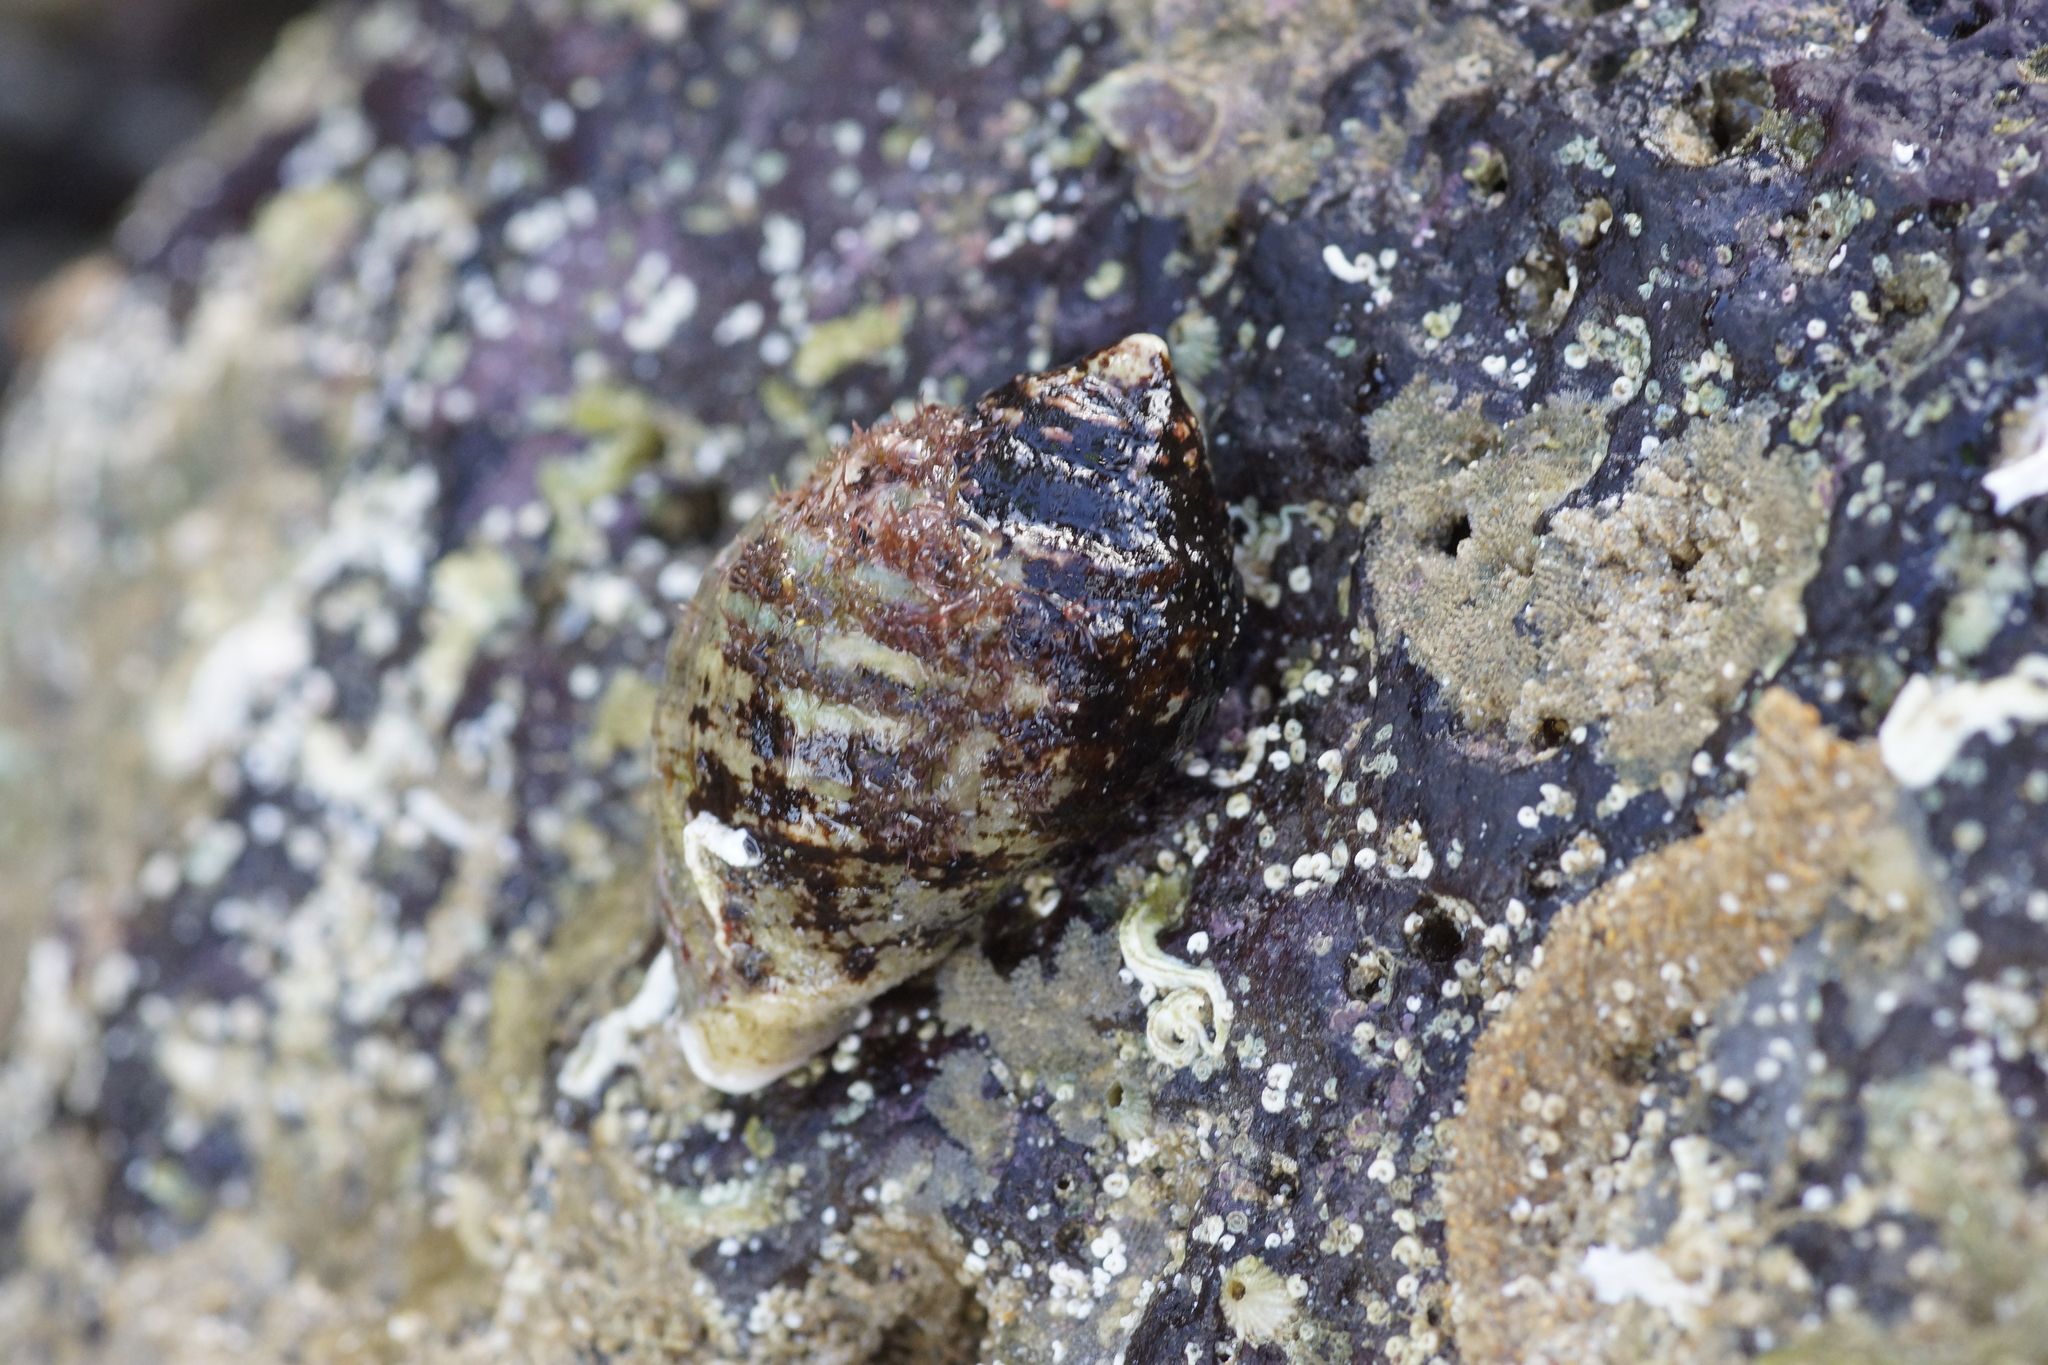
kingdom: Animalia
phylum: Mollusca
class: Gastropoda
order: Neogastropoda
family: Muricidae
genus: Dicathais
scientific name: Dicathais orbita
